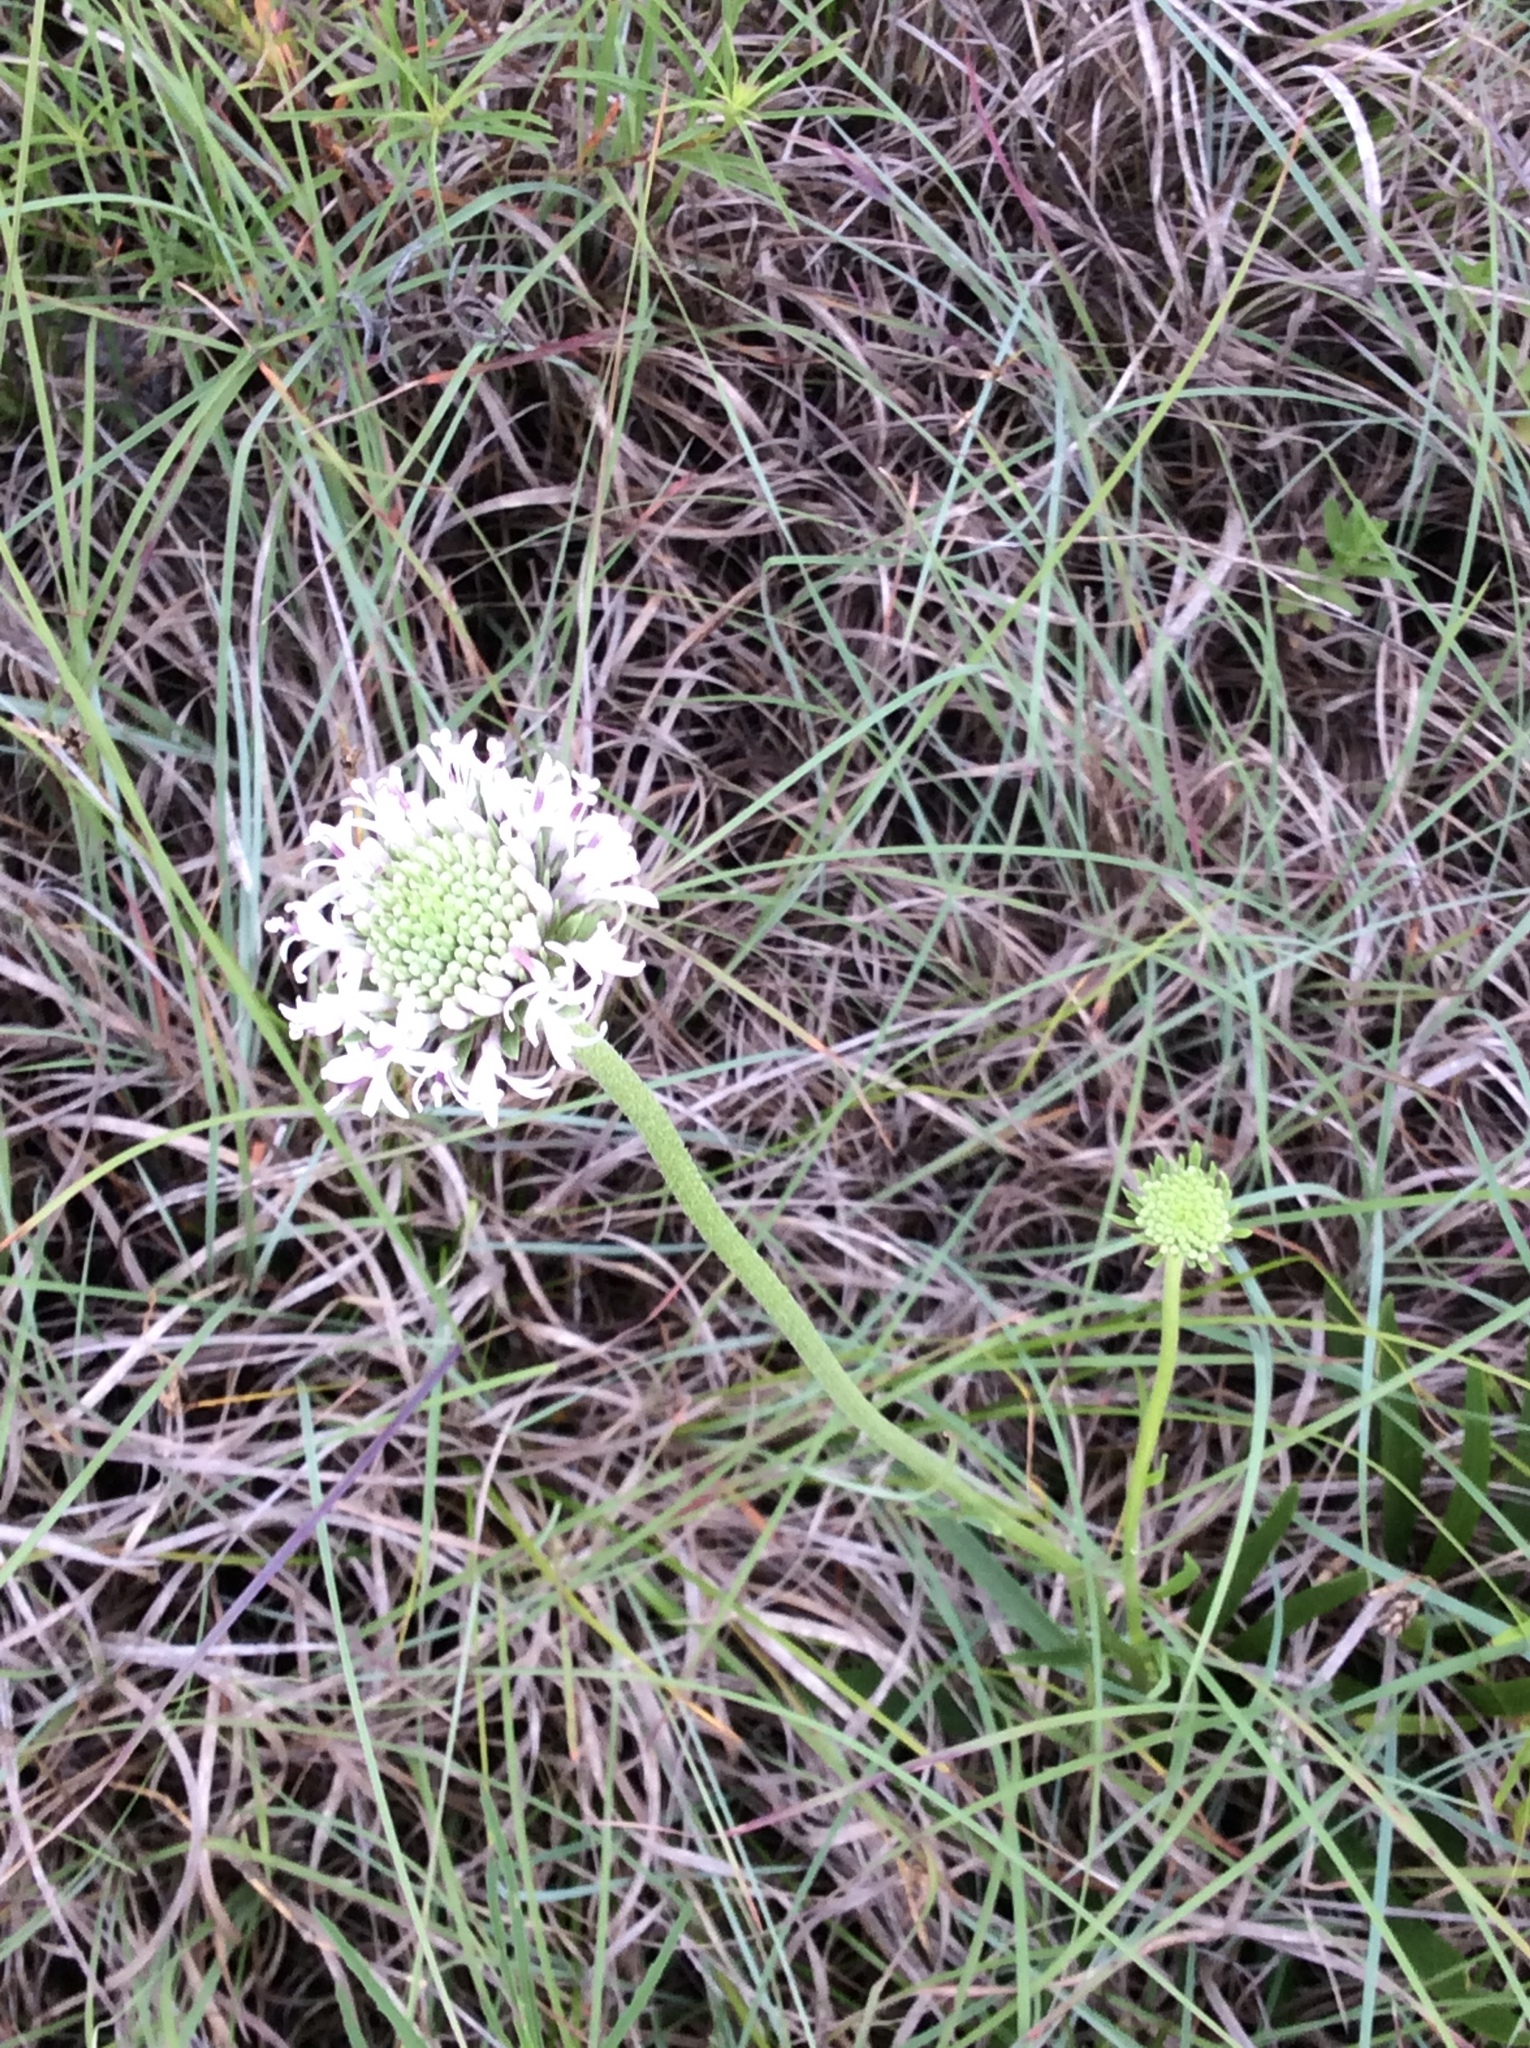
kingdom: Plantae
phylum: Tracheophyta
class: Magnoliopsida
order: Asterales
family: Asteraceae
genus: Marshallia
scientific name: Marshallia caespitosa
